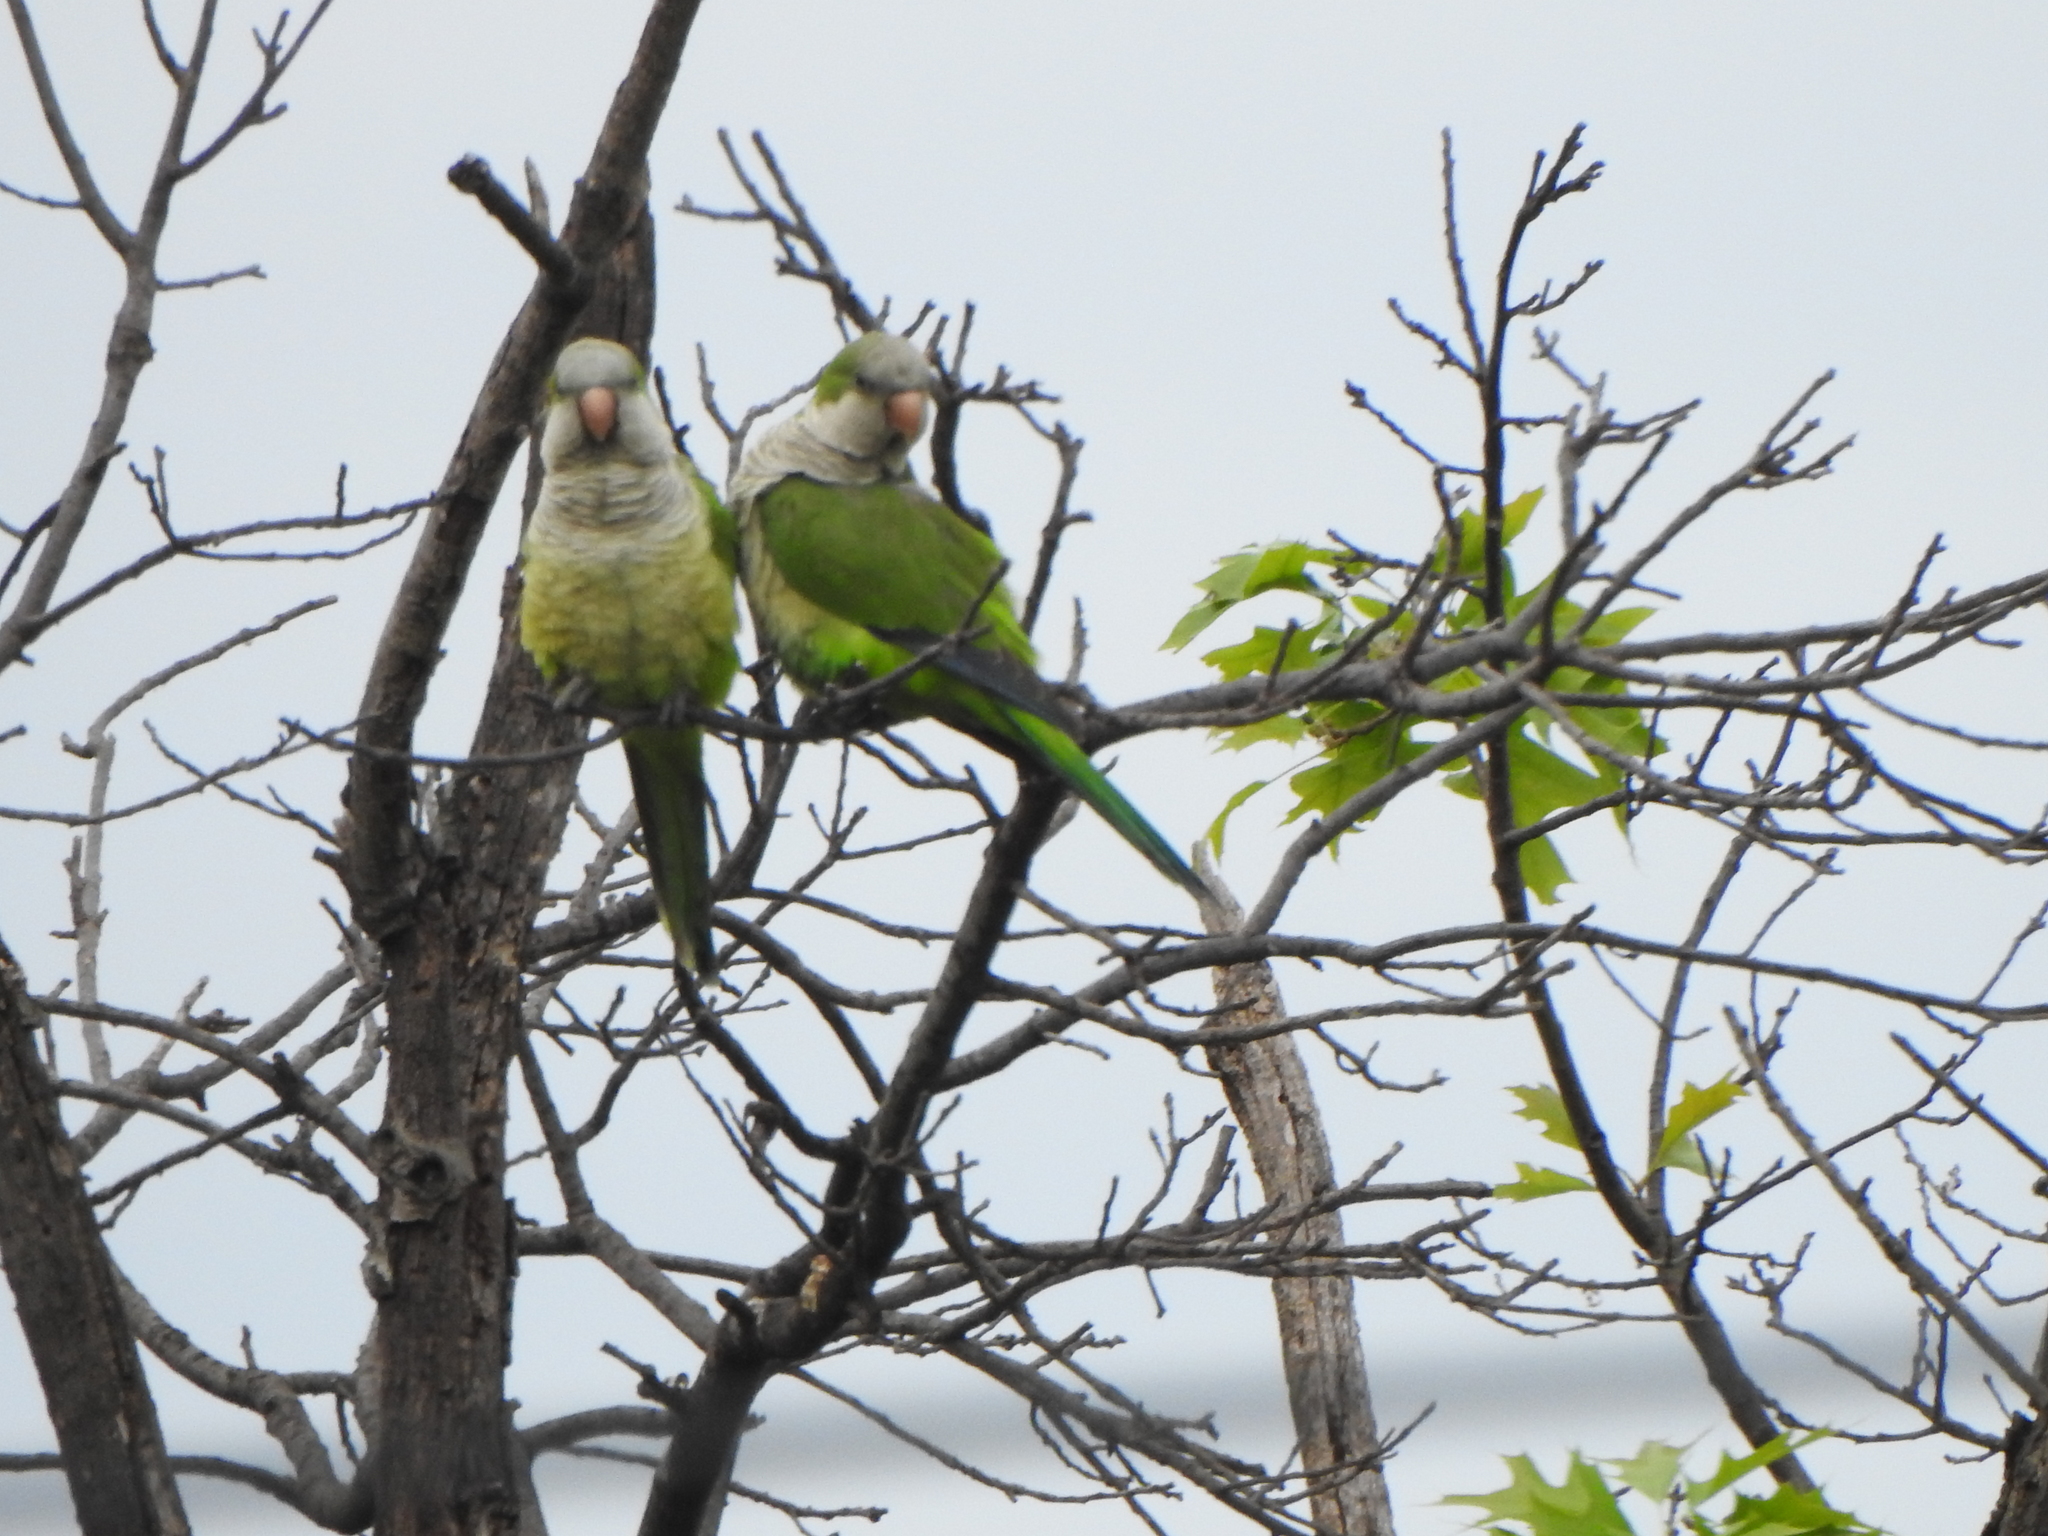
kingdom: Animalia
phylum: Chordata
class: Aves
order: Psittaciformes
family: Psittacidae
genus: Myiopsitta
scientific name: Myiopsitta monachus
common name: Monk parakeet
